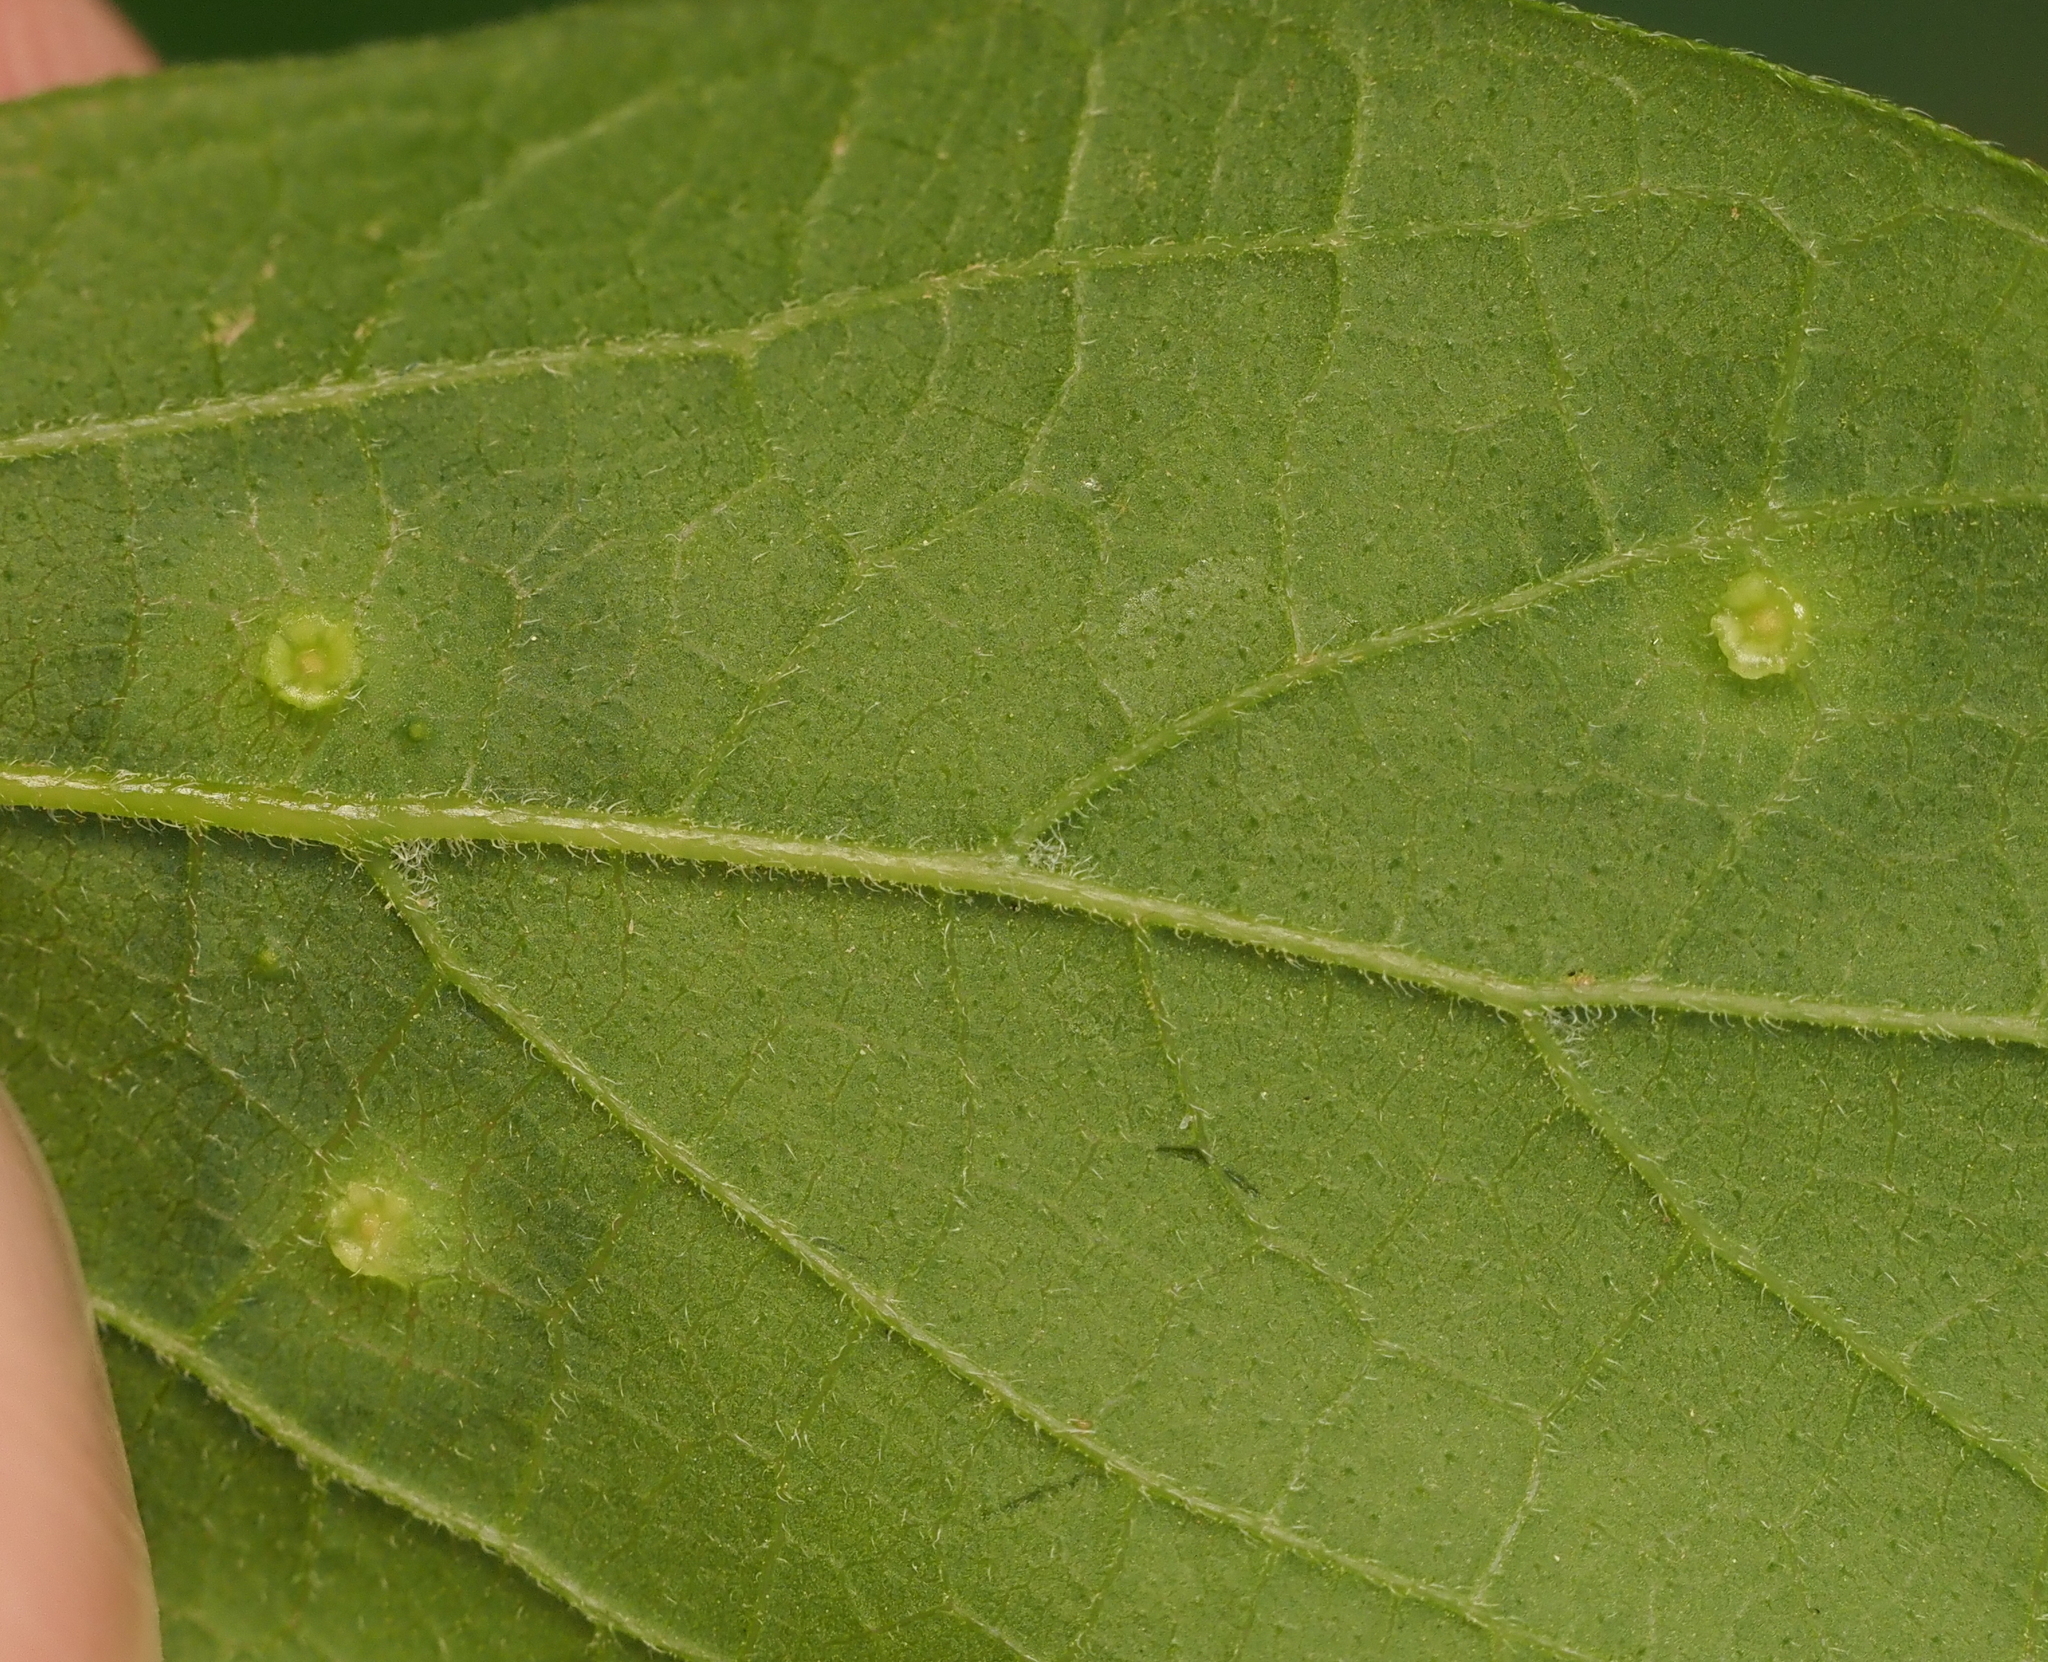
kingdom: Animalia
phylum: Arthropoda
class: Insecta
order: Hemiptera
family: Aphalaridae
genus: Pachypsylla
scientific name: Pachypsylla celtidisasterisca
